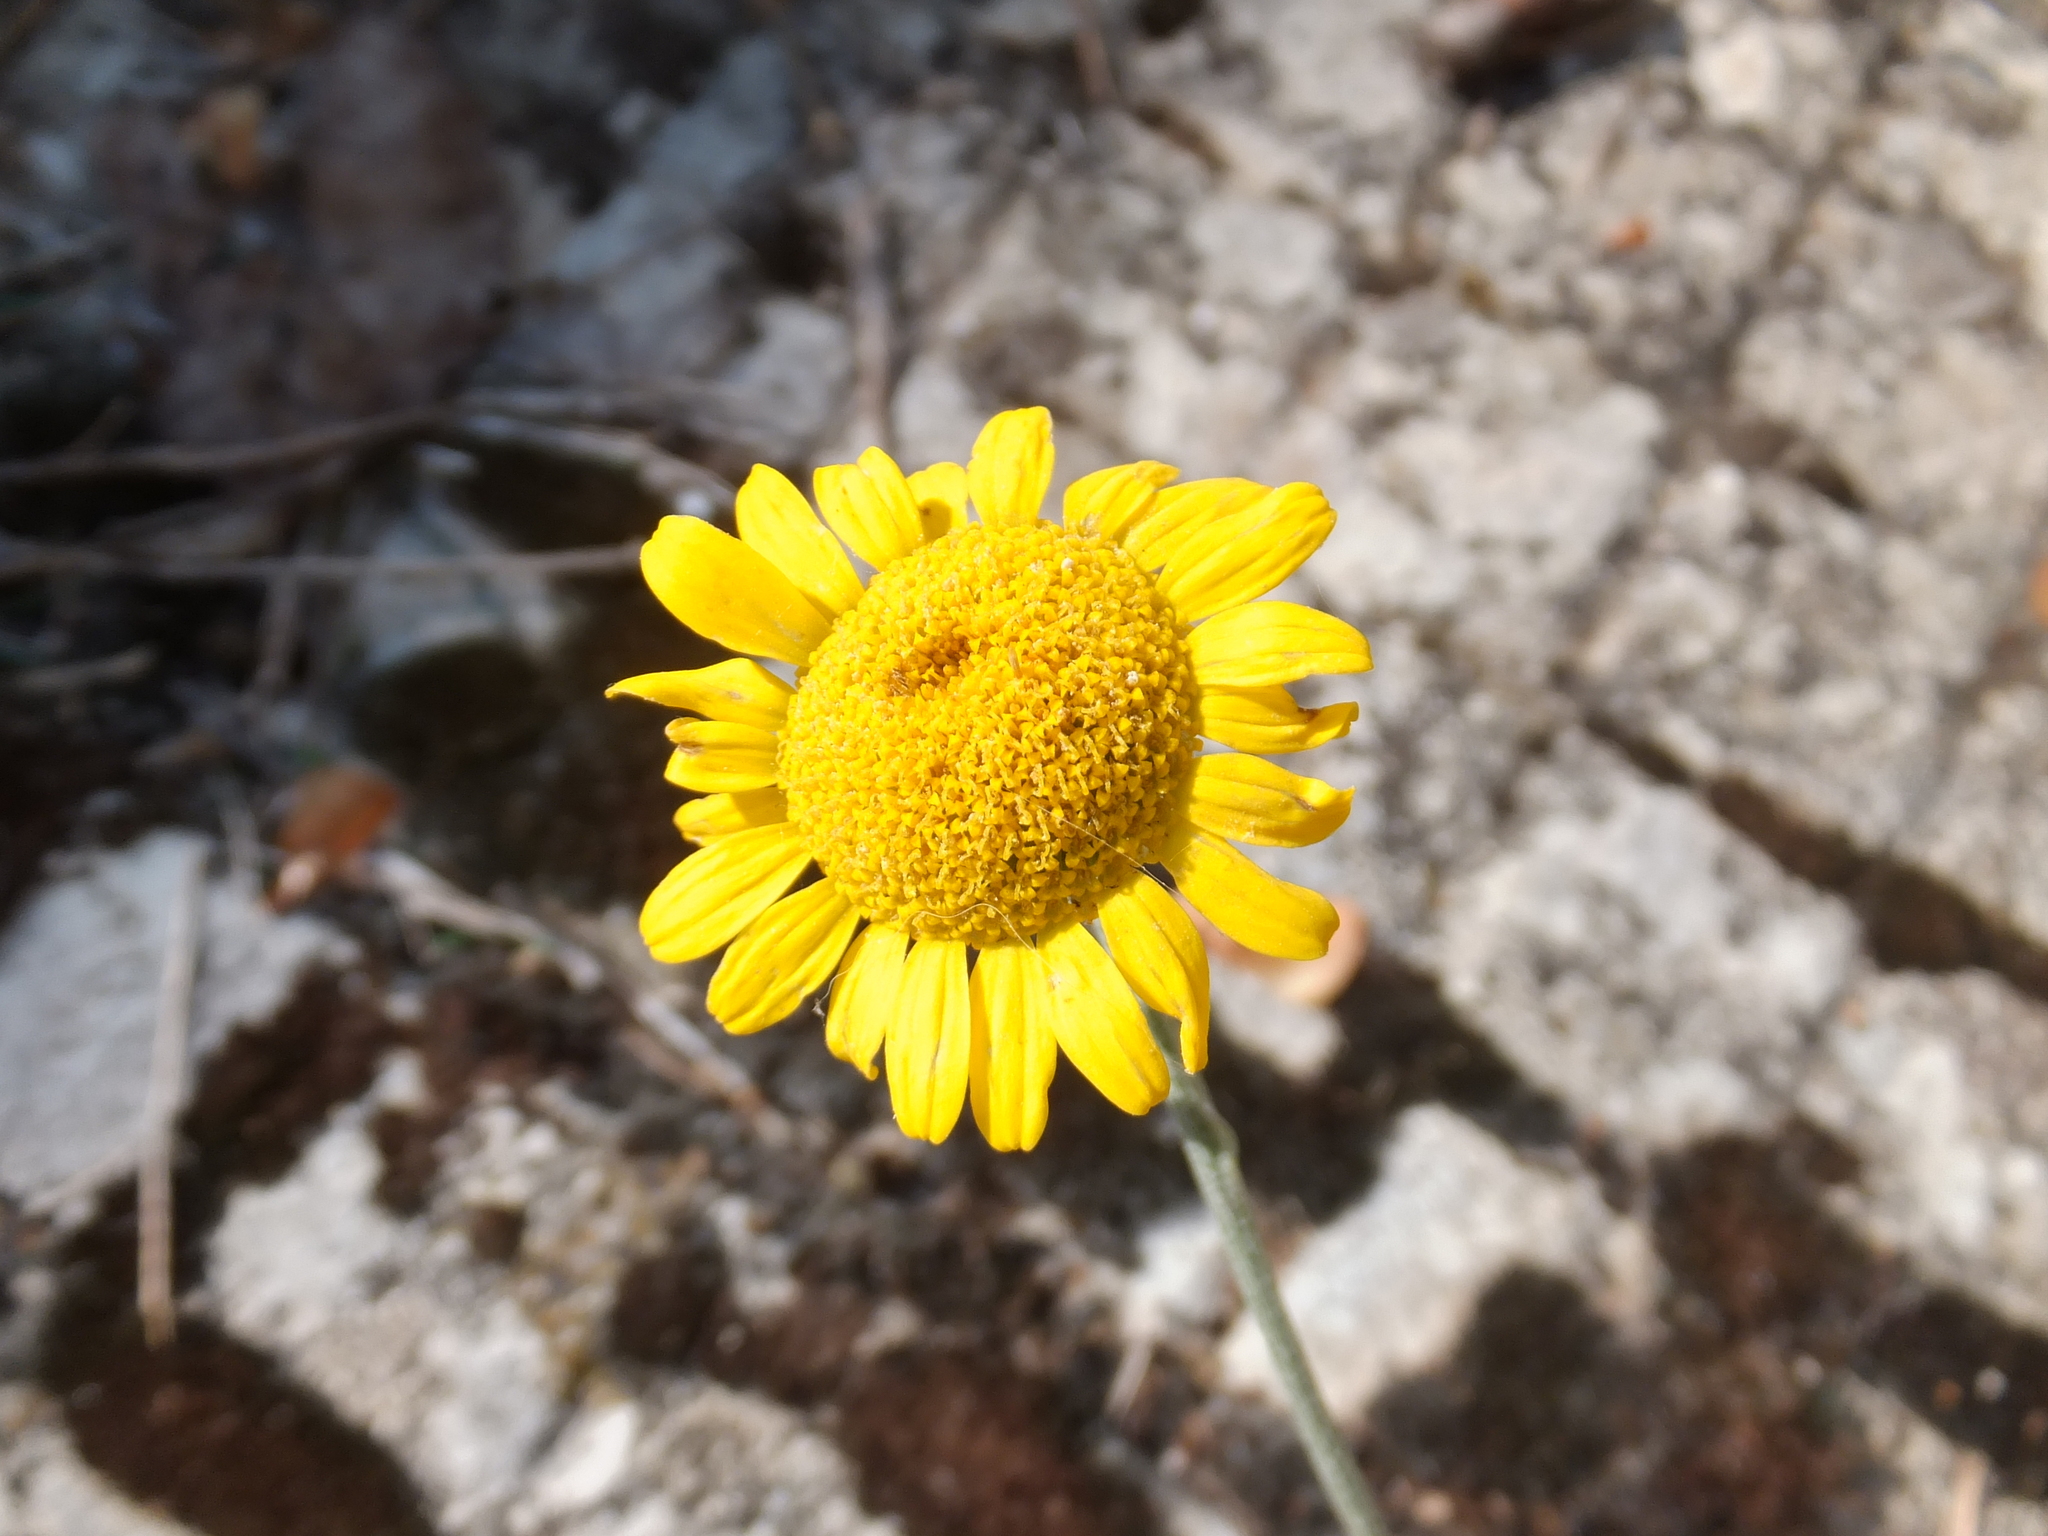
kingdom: Plantae
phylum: Tracheophyta
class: Magnoliopsida
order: Asterales
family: Asteraceae
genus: Cota
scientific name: Cota tinctoria
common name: Golden chamomile
